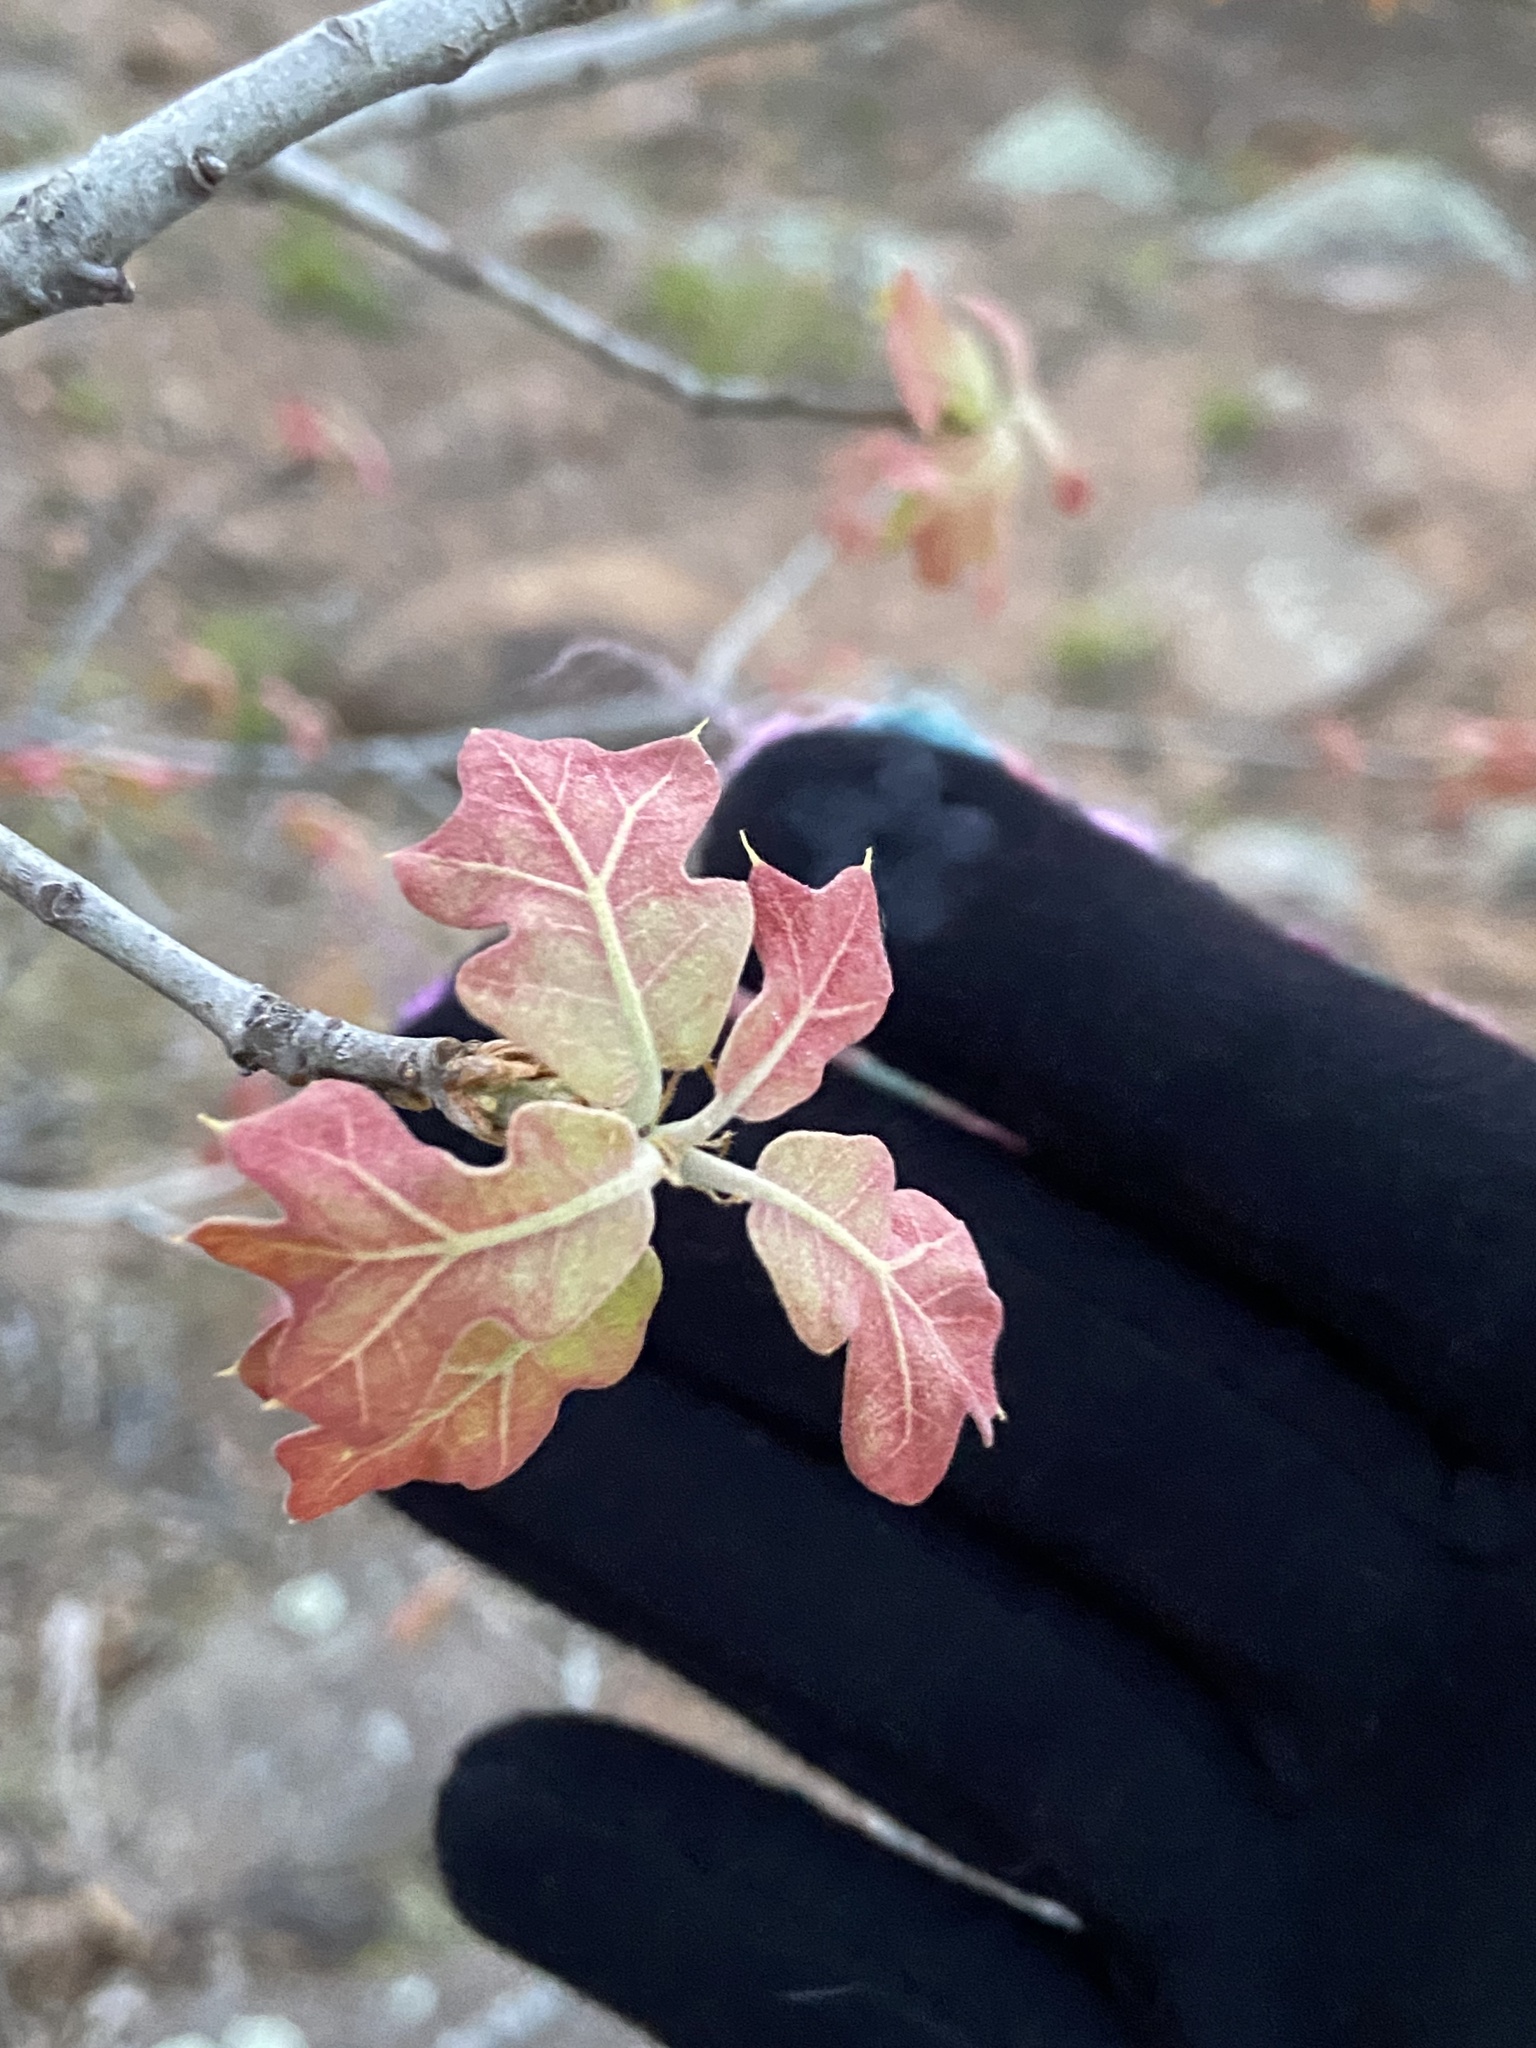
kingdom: Plantae
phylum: Tracheophyta
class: Magnoliopsida
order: Fagales
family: Fagaceae
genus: Quercus
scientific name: Quercus marilandica
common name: Blackjack oak
